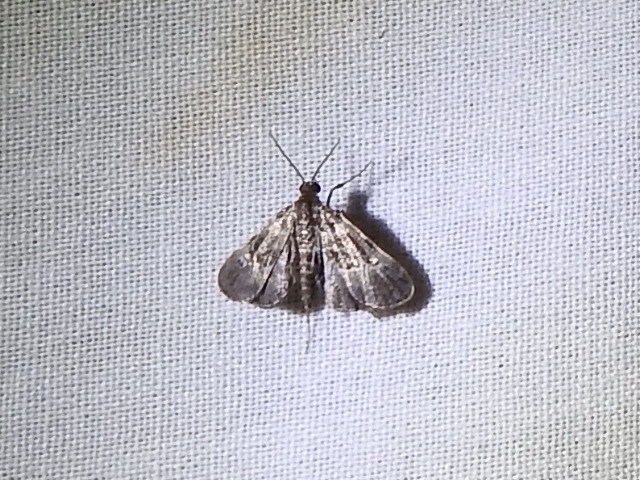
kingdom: Animalia
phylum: Arthropoda
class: Insecta
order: Lepidoptera
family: Crambidae
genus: Elophila
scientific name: Elophila obliteralis
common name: Waterlily leafcutter moth
